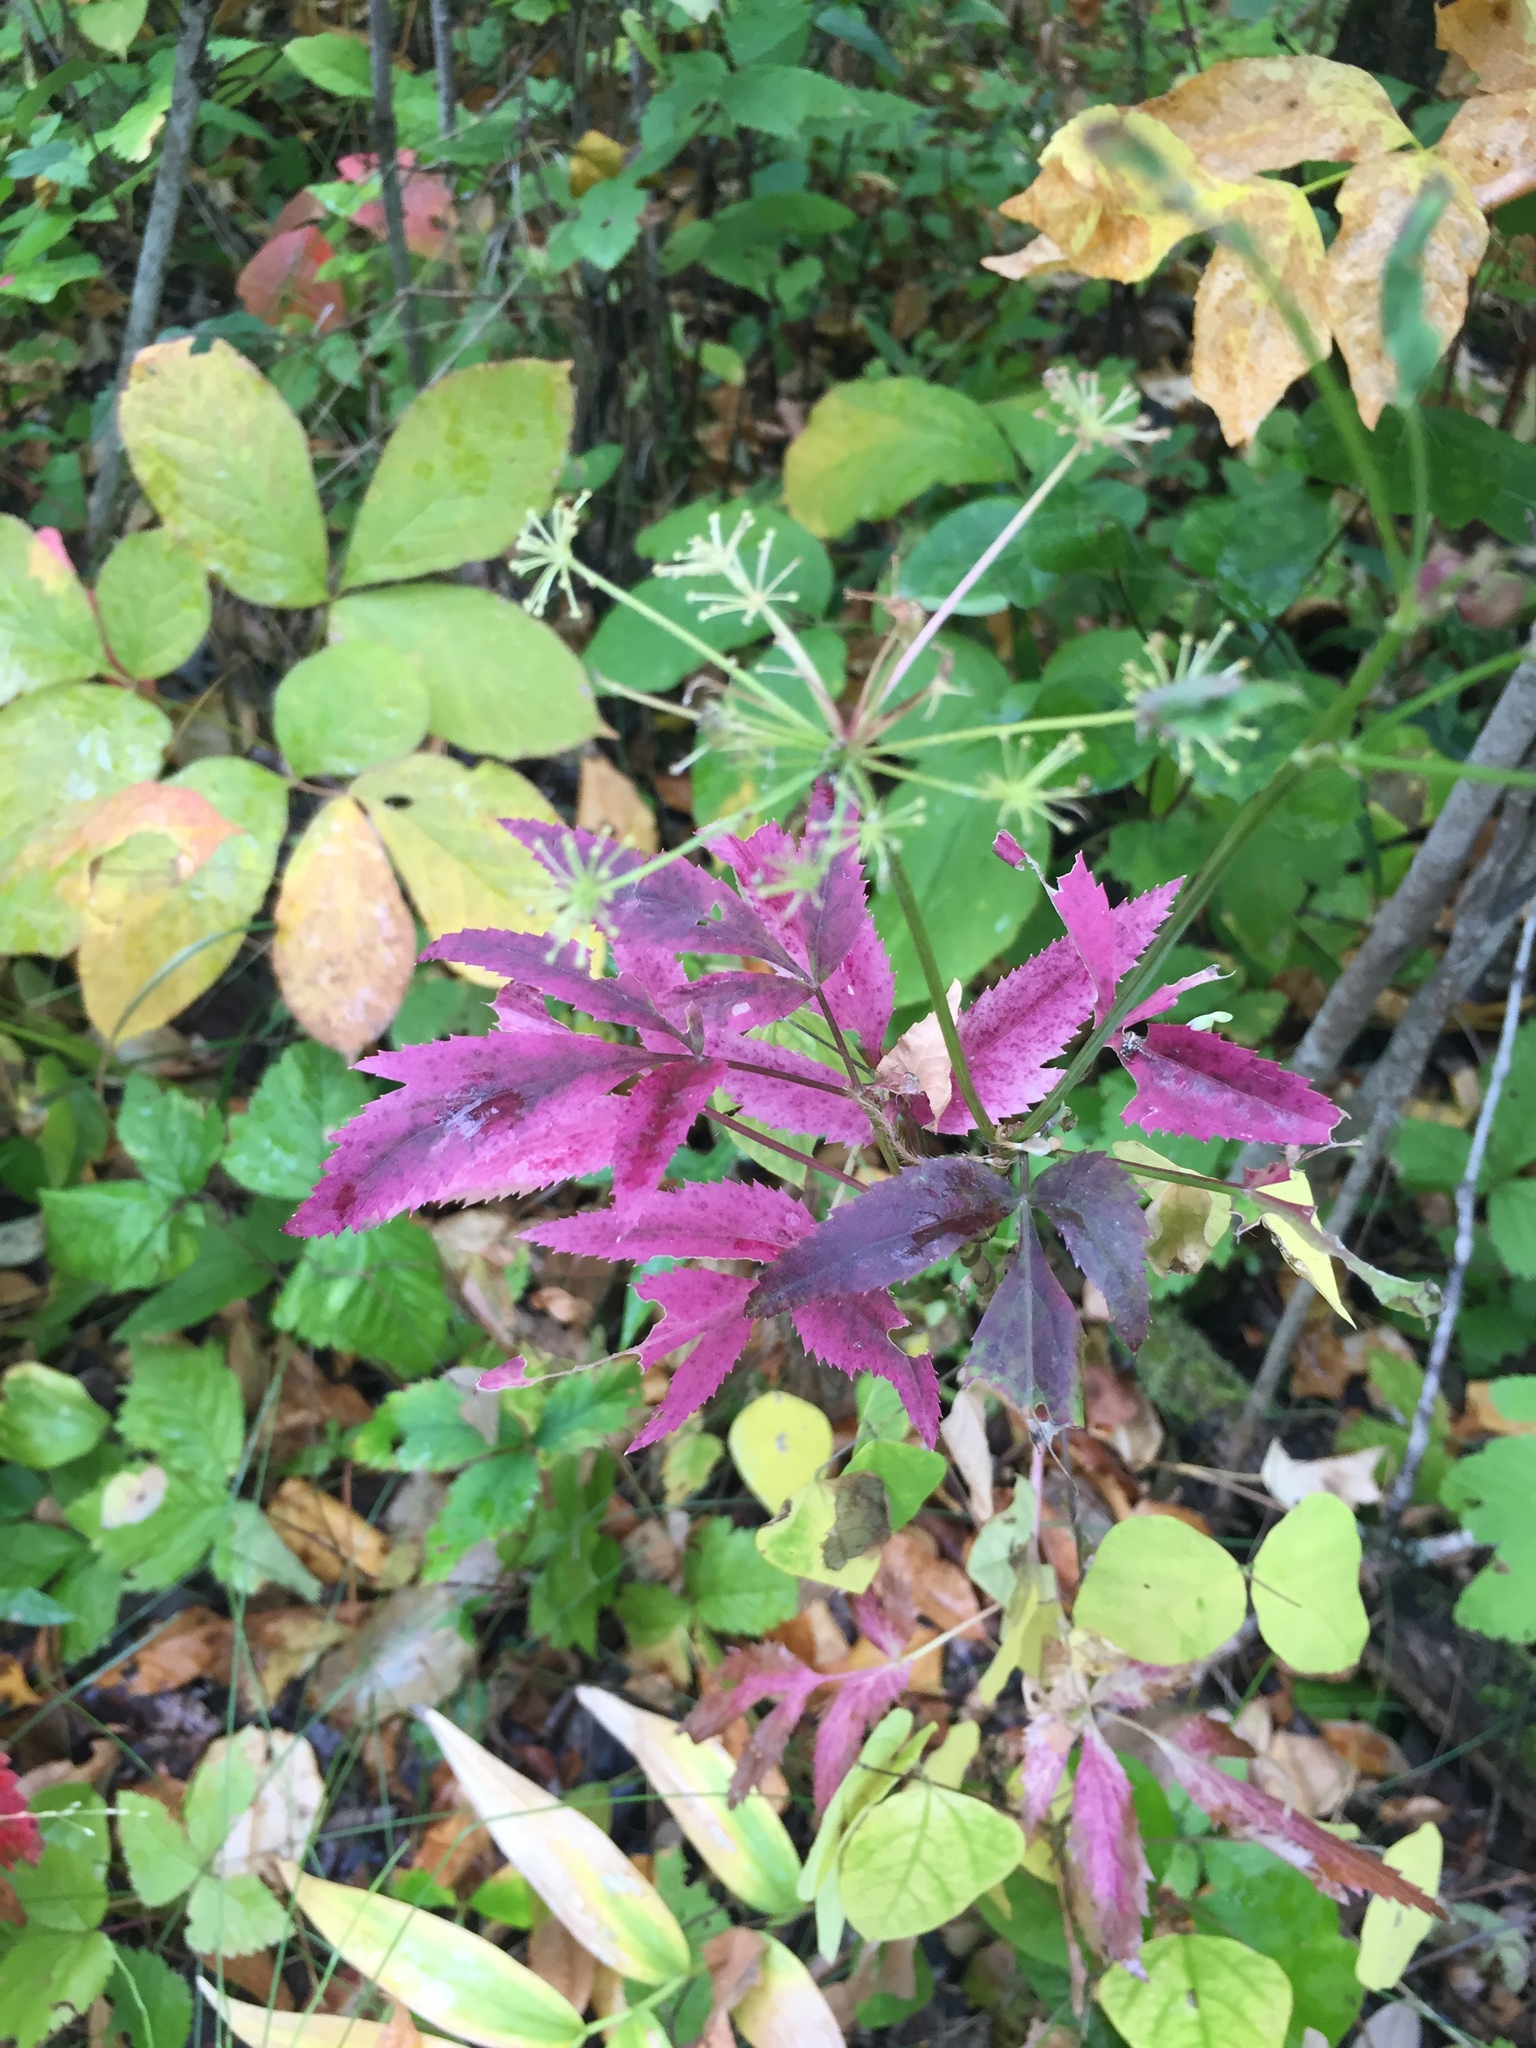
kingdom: Plantae
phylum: Tracheophyta
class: Magnoliopsida
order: Apiales
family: Apiaceae
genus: Zizia
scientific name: Zizia aurea
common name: Golden alexanders
